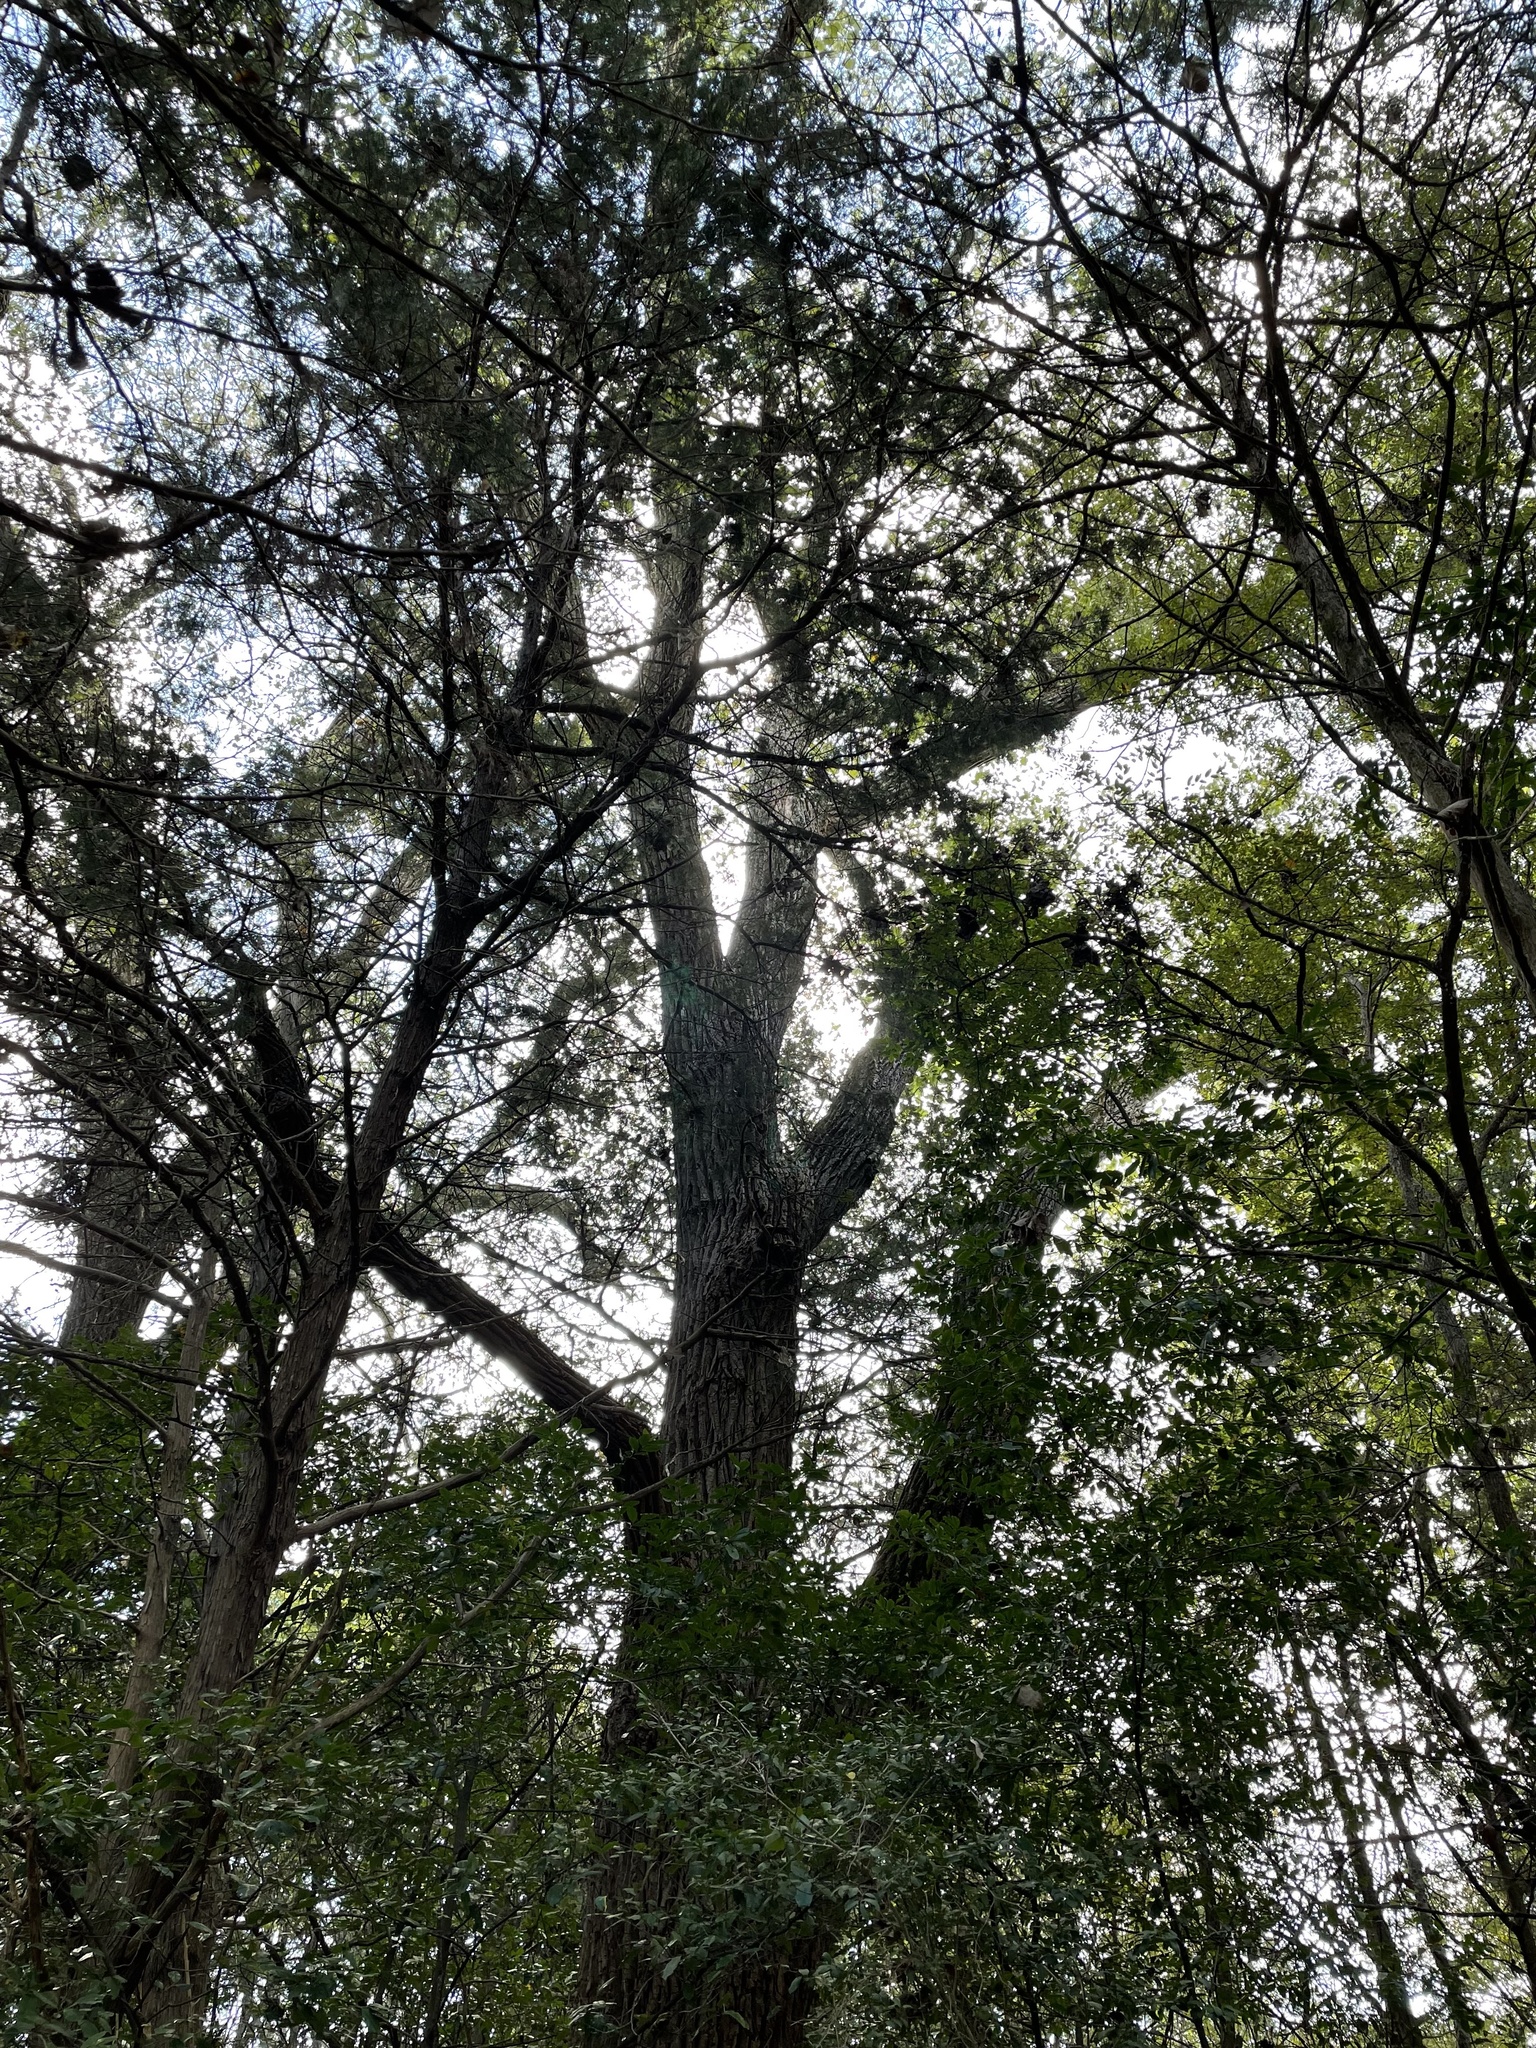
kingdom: Plantae
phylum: Tracheophyta
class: Magnoliopsida
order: Malpighiales
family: Salicaceae
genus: Populus
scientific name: Populus deltoides
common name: Eastern cottonwood
